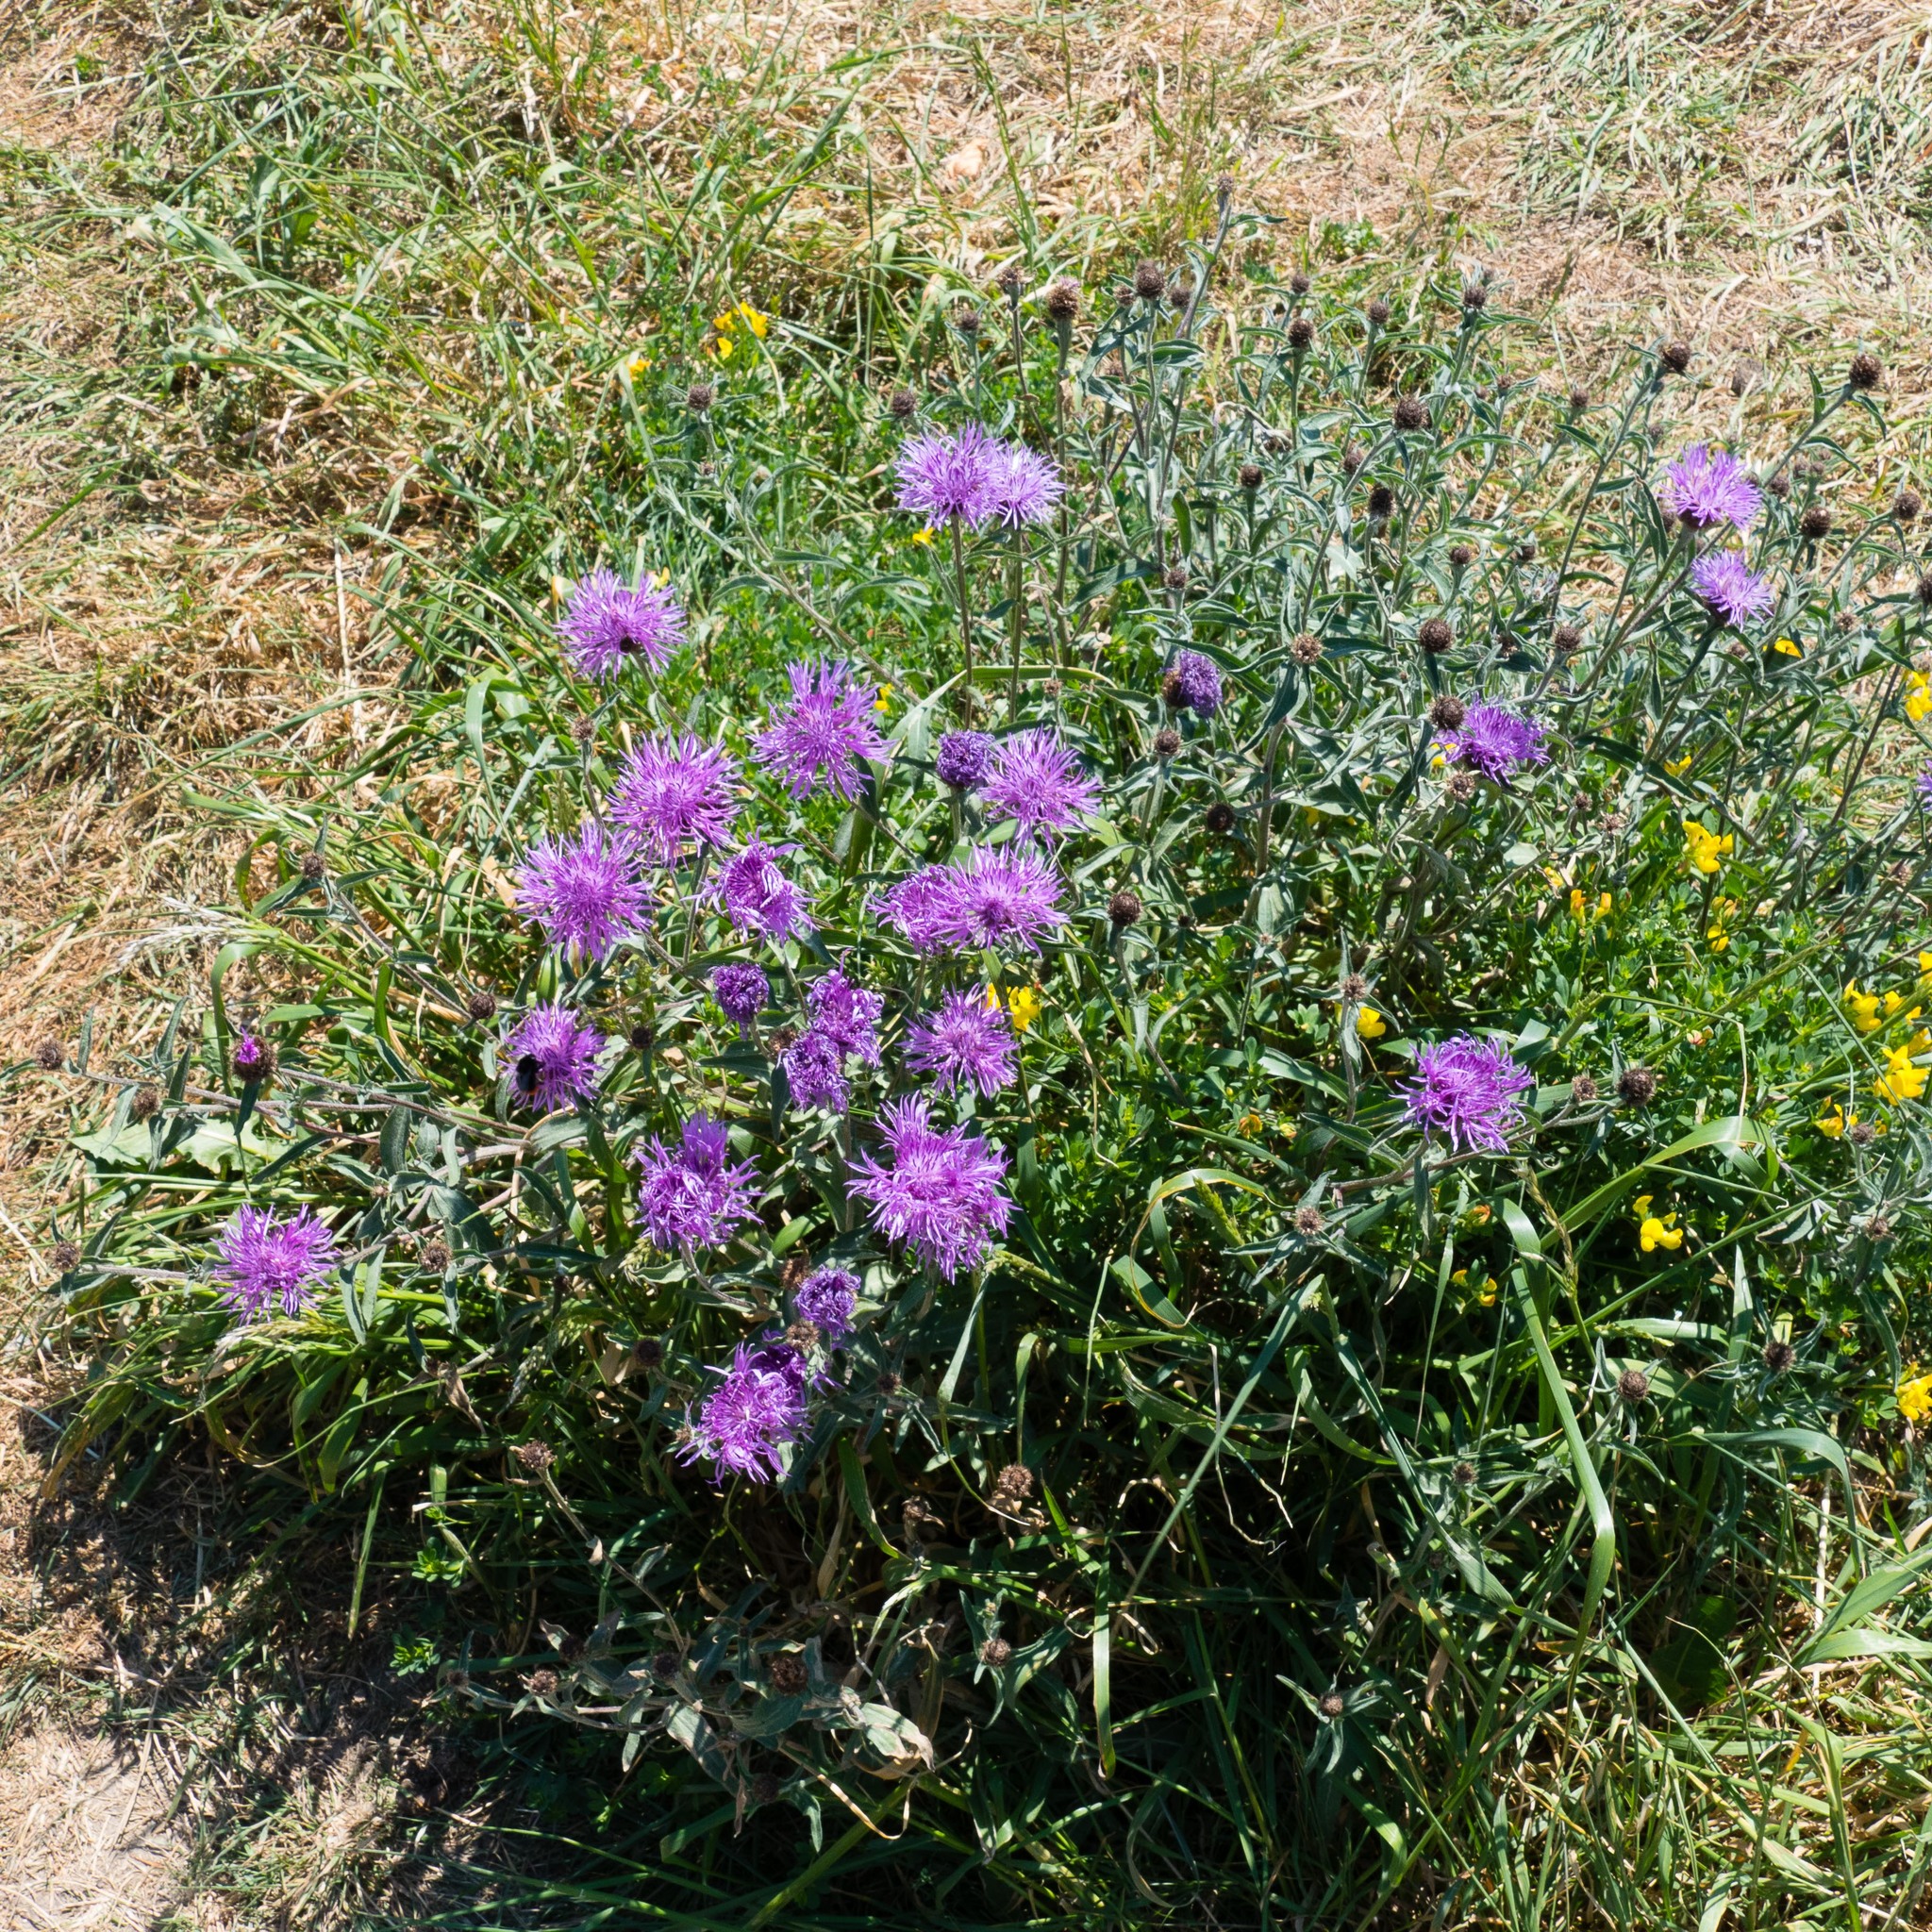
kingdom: Plantae
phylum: Tracheophyta
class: Magnoliopsida
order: Asterales
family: Asteraceae
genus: Centaurea
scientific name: Centaurea nigra
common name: Lesser knapweed
